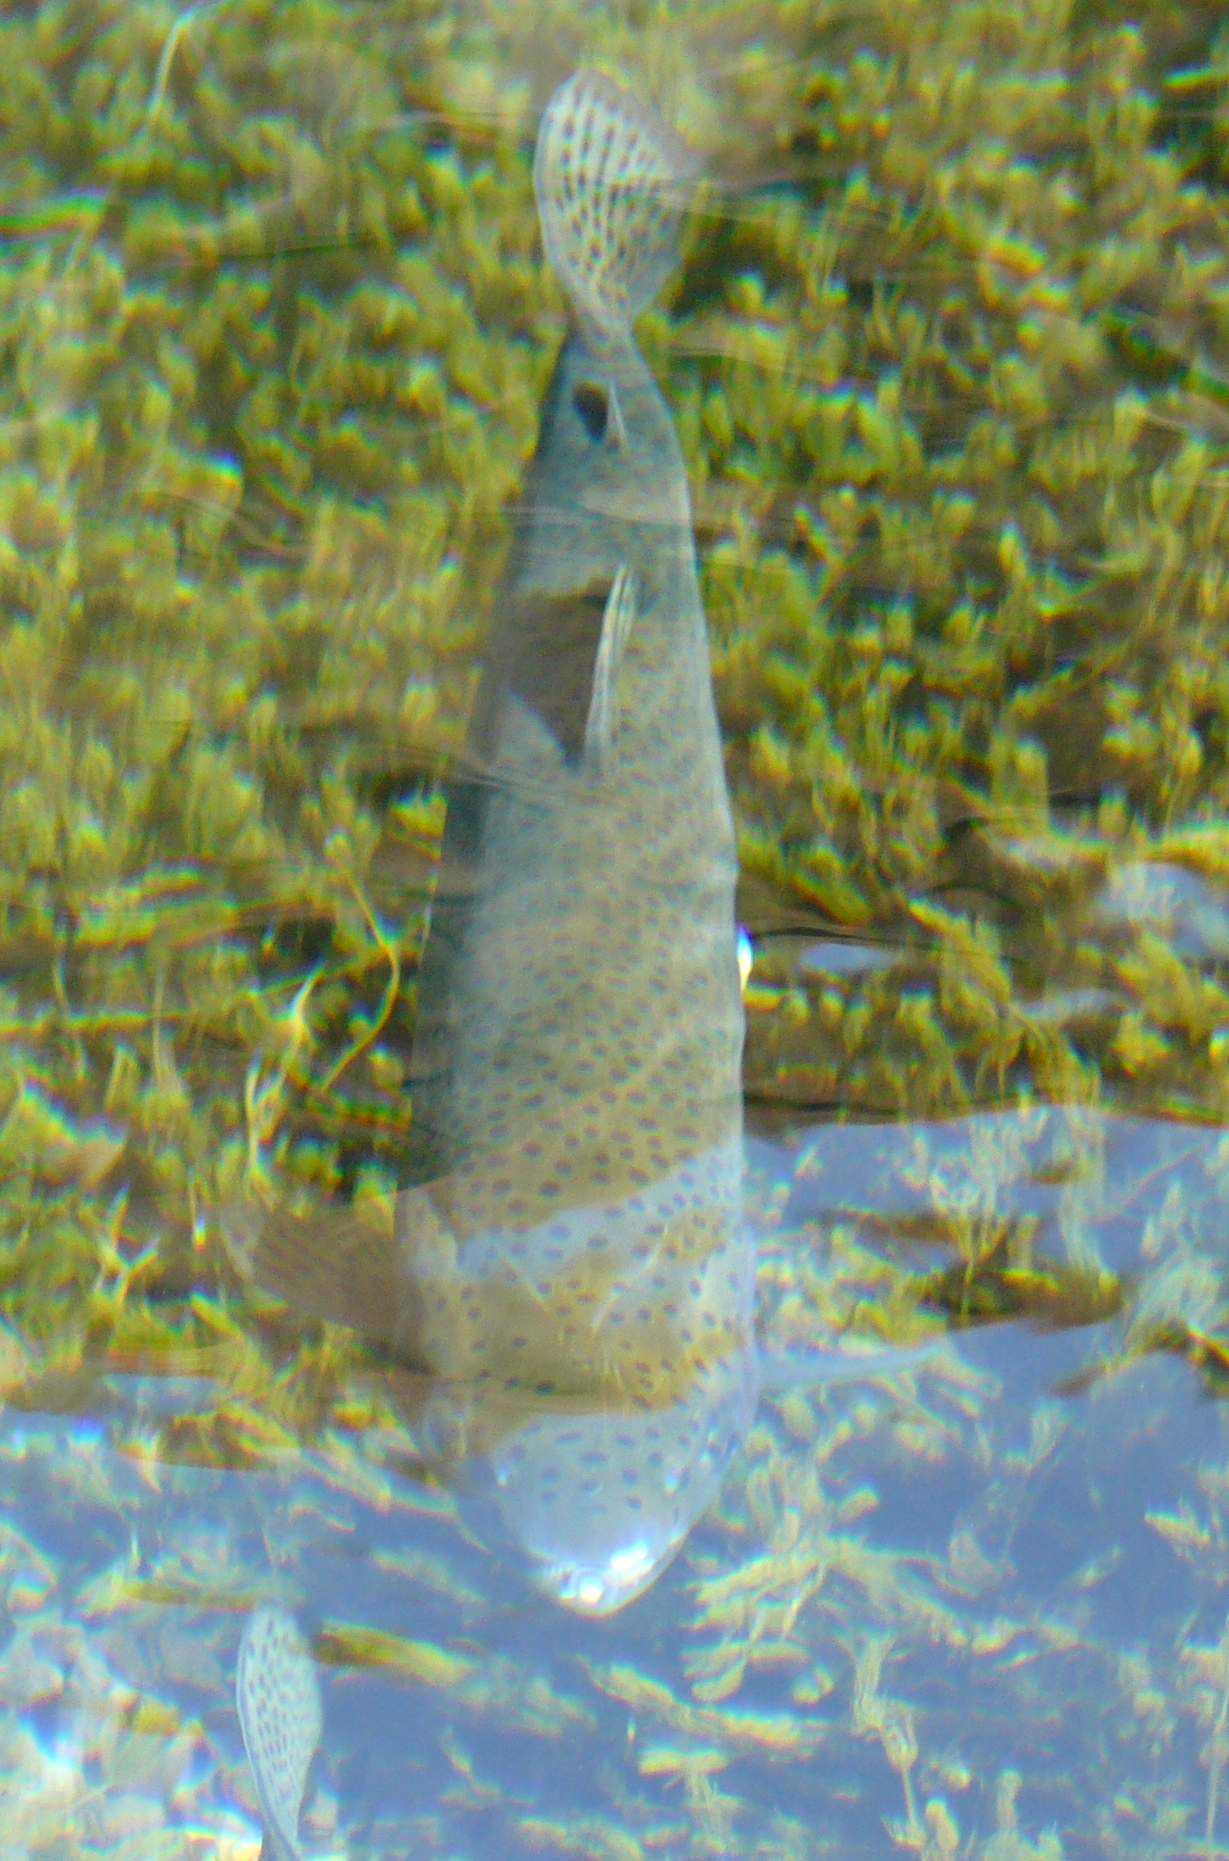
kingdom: Animalia
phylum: Chordata
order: Salmoniformes
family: Salmonidae
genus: Oncorhynchus
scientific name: Oncorhynchus mykiss
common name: Rainbow trout
